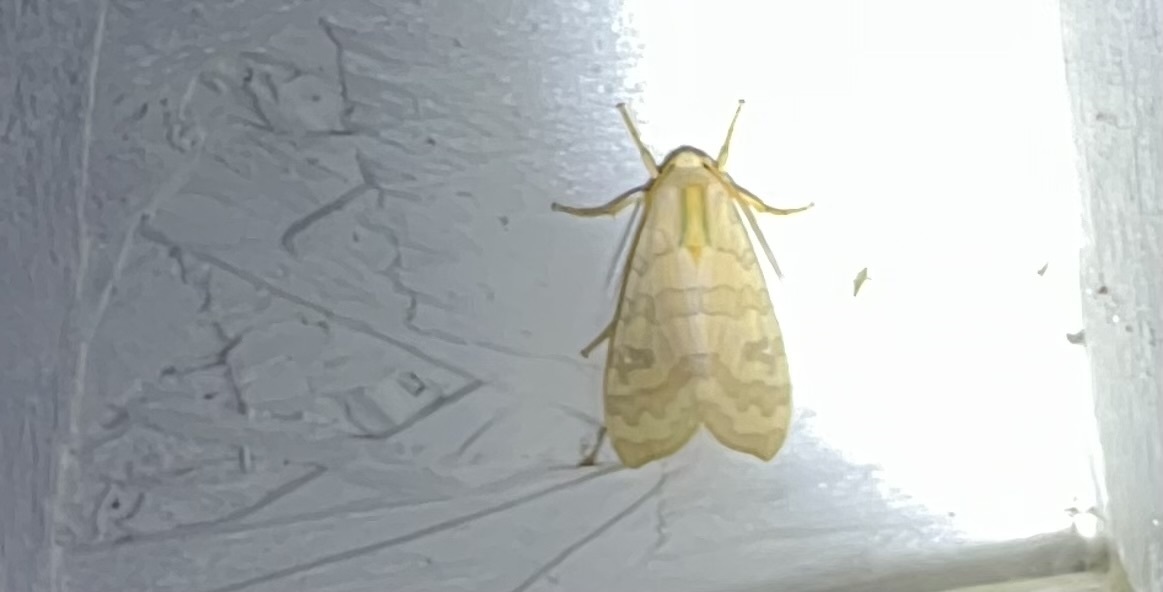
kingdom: Animalia
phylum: Arthropoda
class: Insecta
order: Lepidoptera
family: Erebidae
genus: Halysidota
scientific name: Halysidota
